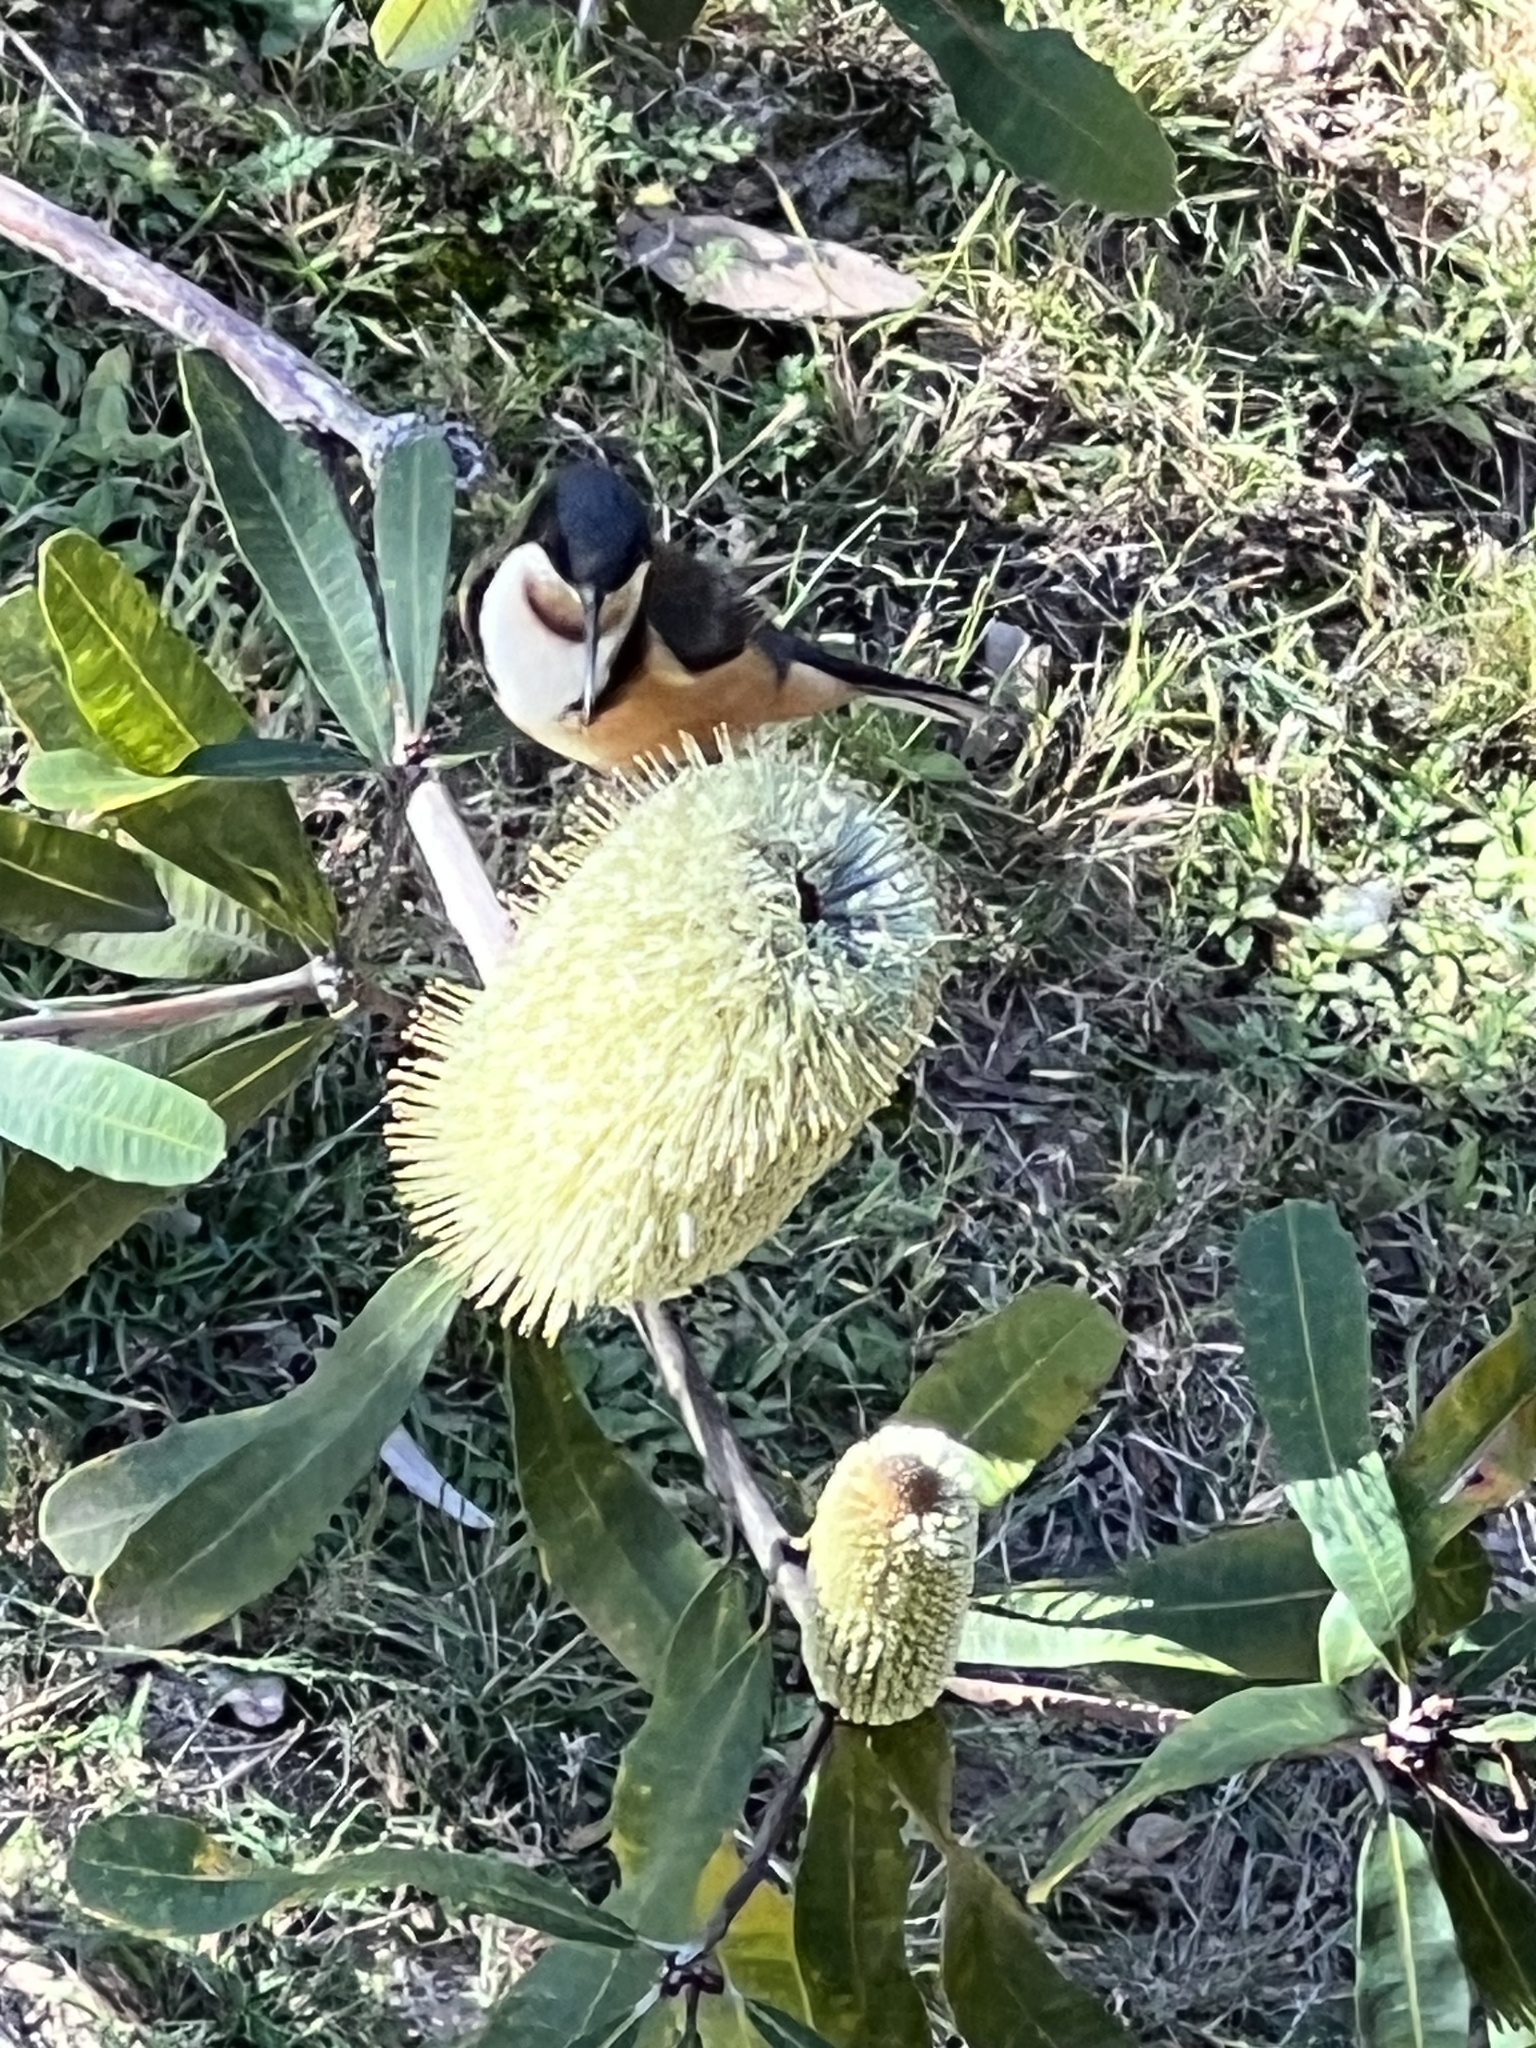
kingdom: Animalia
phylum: Chordata
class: Aves
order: Passeriformes
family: Meliphagidae
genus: Acanthorhynchus
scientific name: Acanthorhynchus tenuirostris
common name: Eastern spinebill
